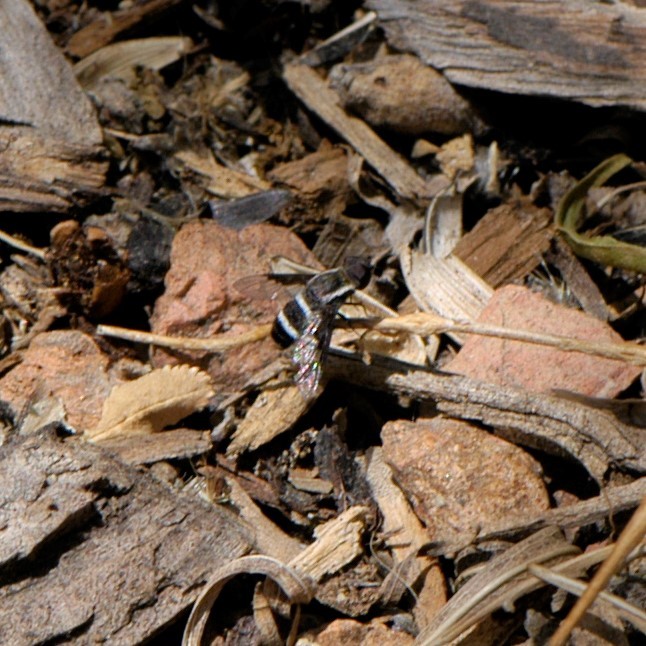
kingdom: Animalia
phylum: Arthropoda
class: Insecta
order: Diptera
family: Bombyliidae
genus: Hemipenthes
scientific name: Hemipenthes lepidotus
